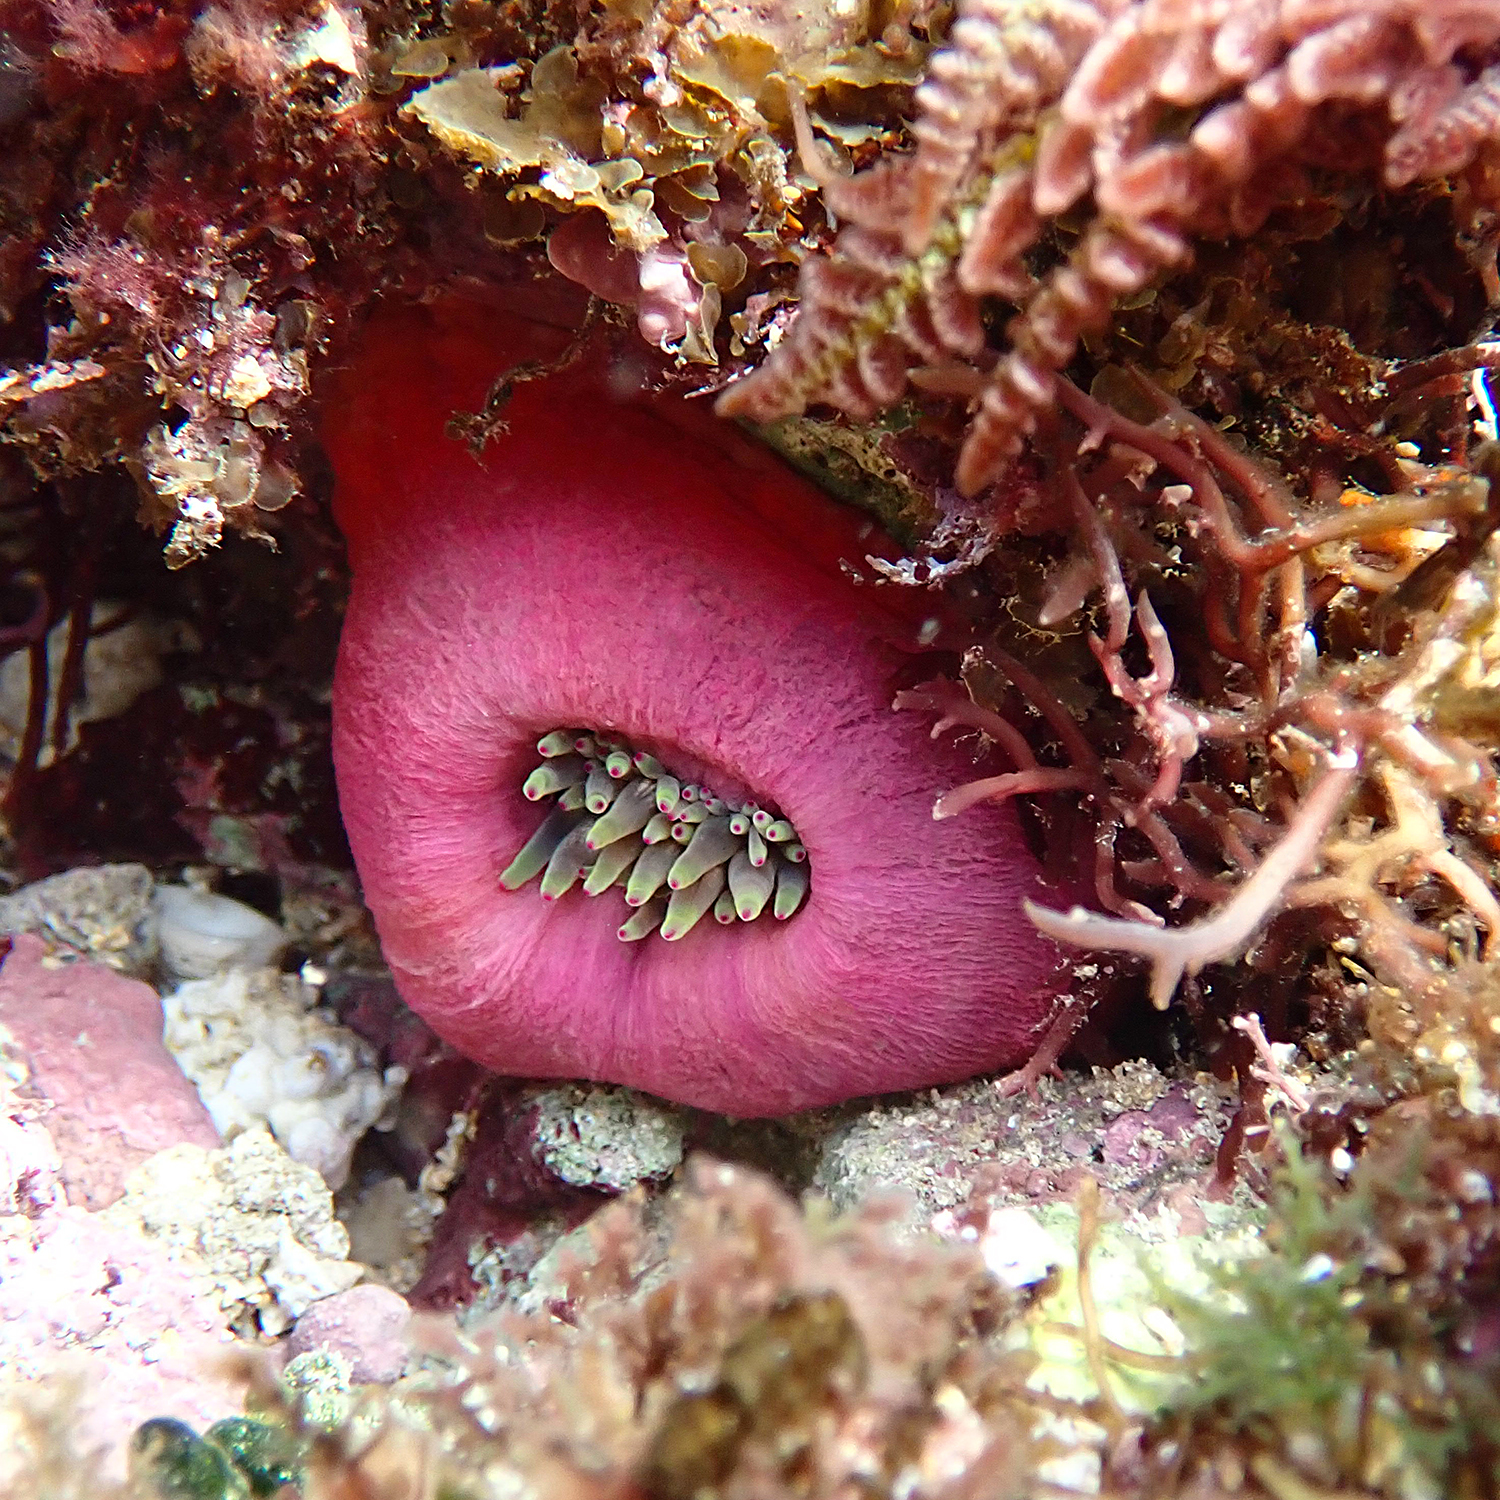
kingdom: Animalia
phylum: Cnidaria
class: Anthozoa
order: Actiniaria
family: Actiniidae
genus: Entacmaea
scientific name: Entacmaea quadricolor
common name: Bulb tentacle sea anemone
